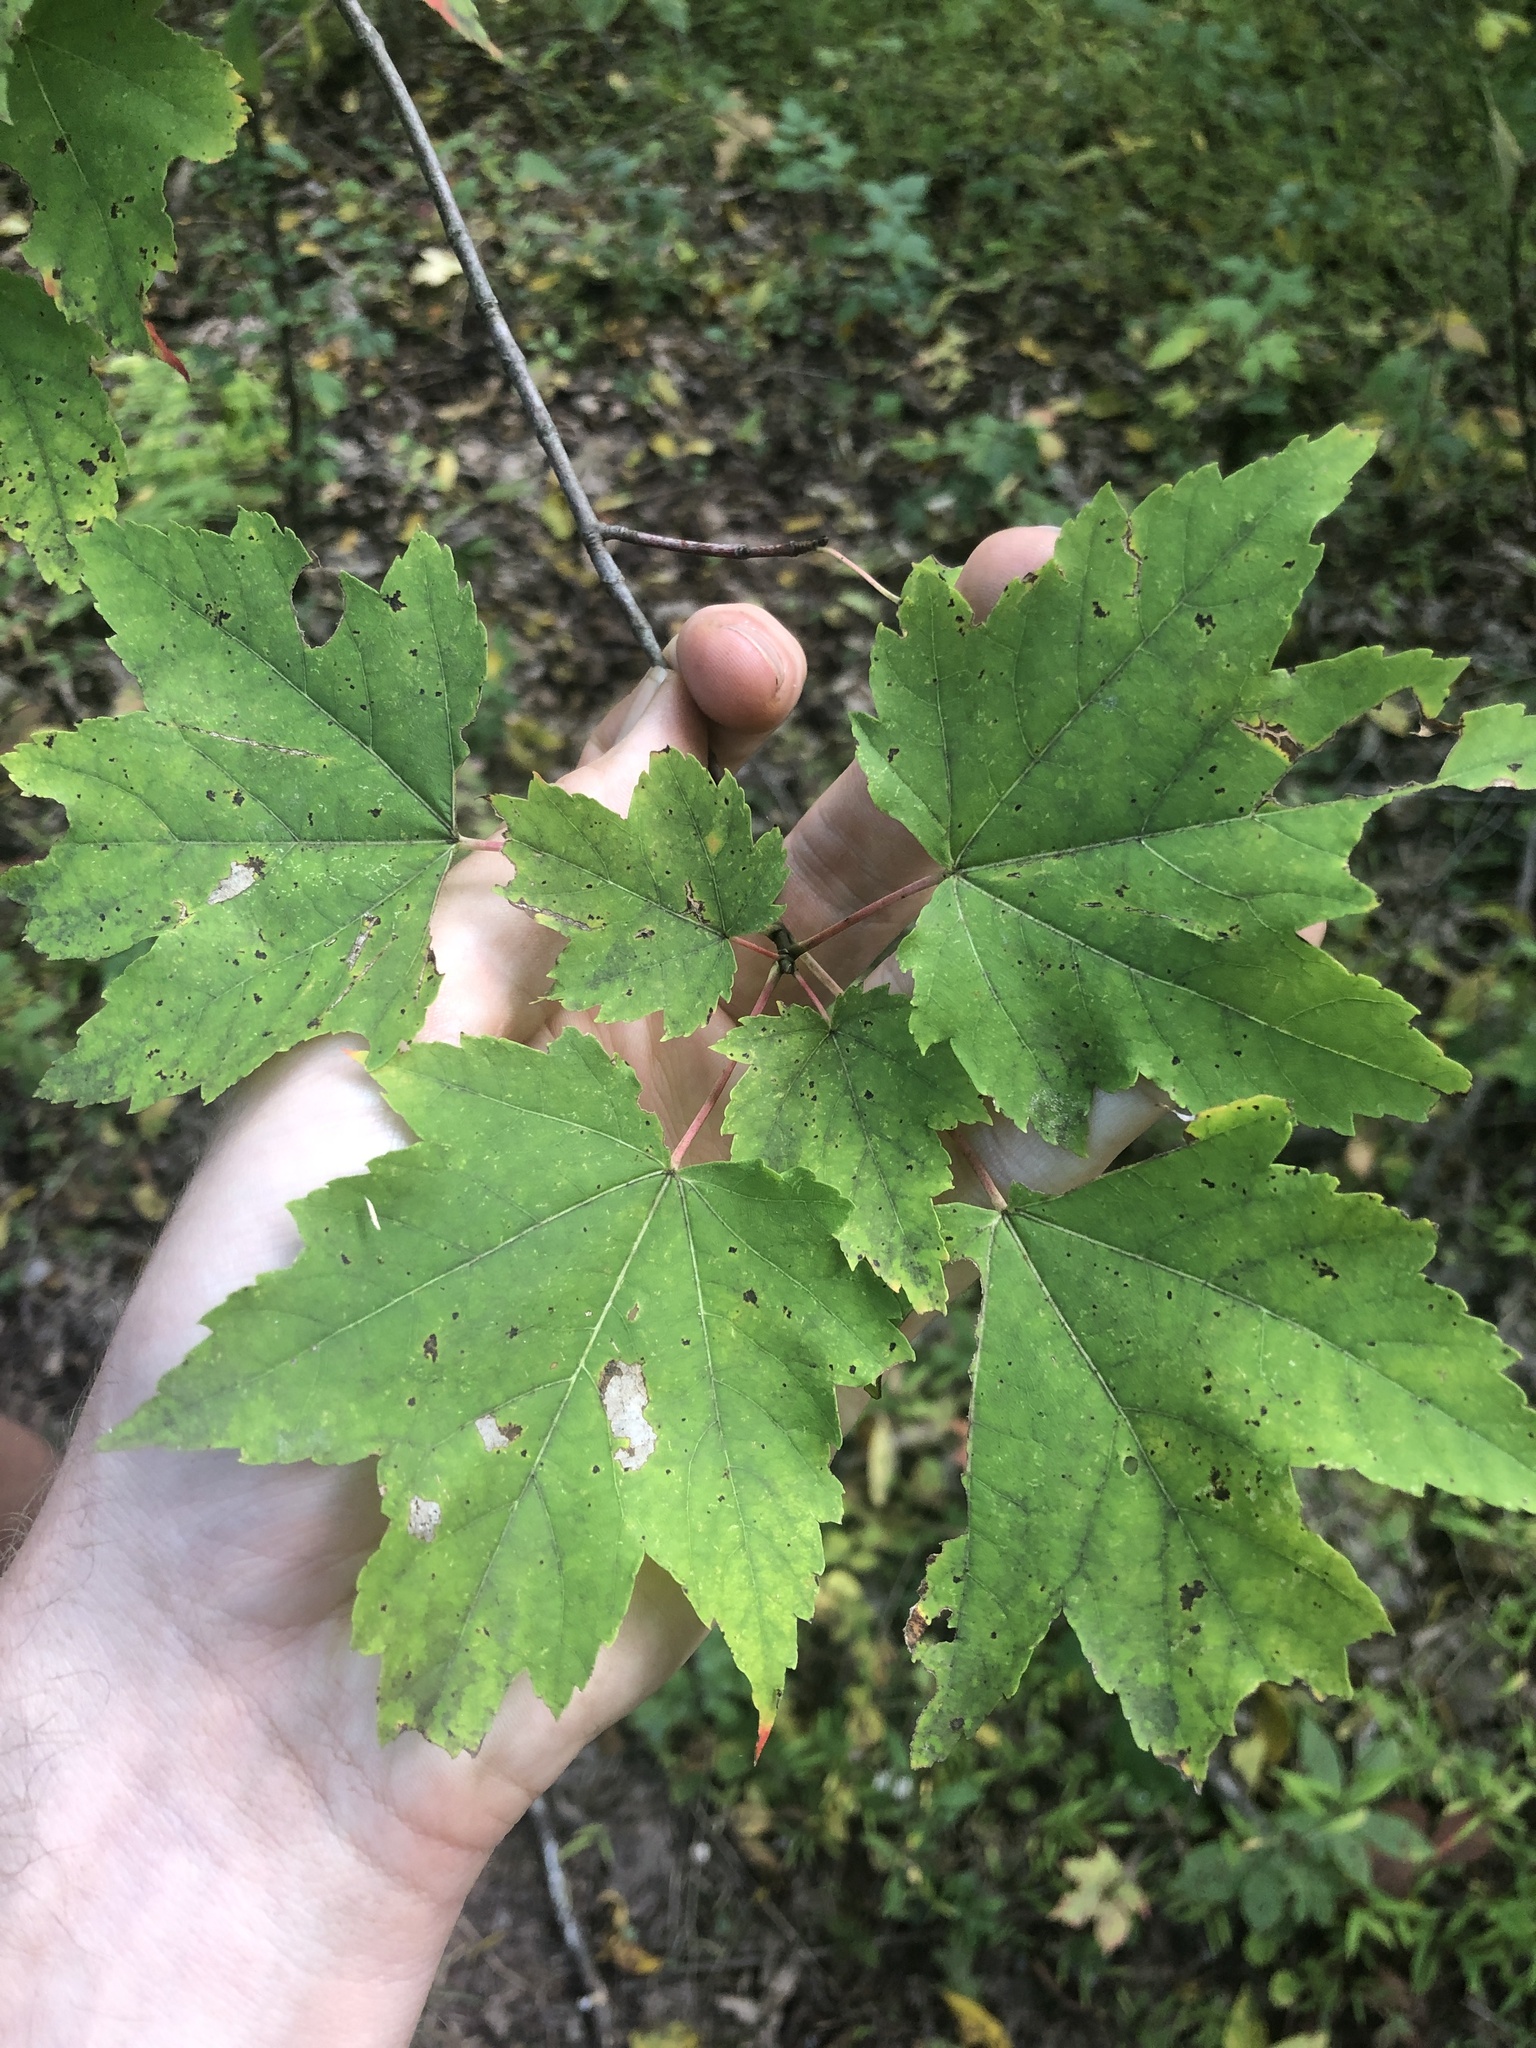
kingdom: Plantae
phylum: Tracheophyta
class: Magnoliopsida
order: Sapindales
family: Sapindaceae
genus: Acer
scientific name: Acer rubrum
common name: Red maple
